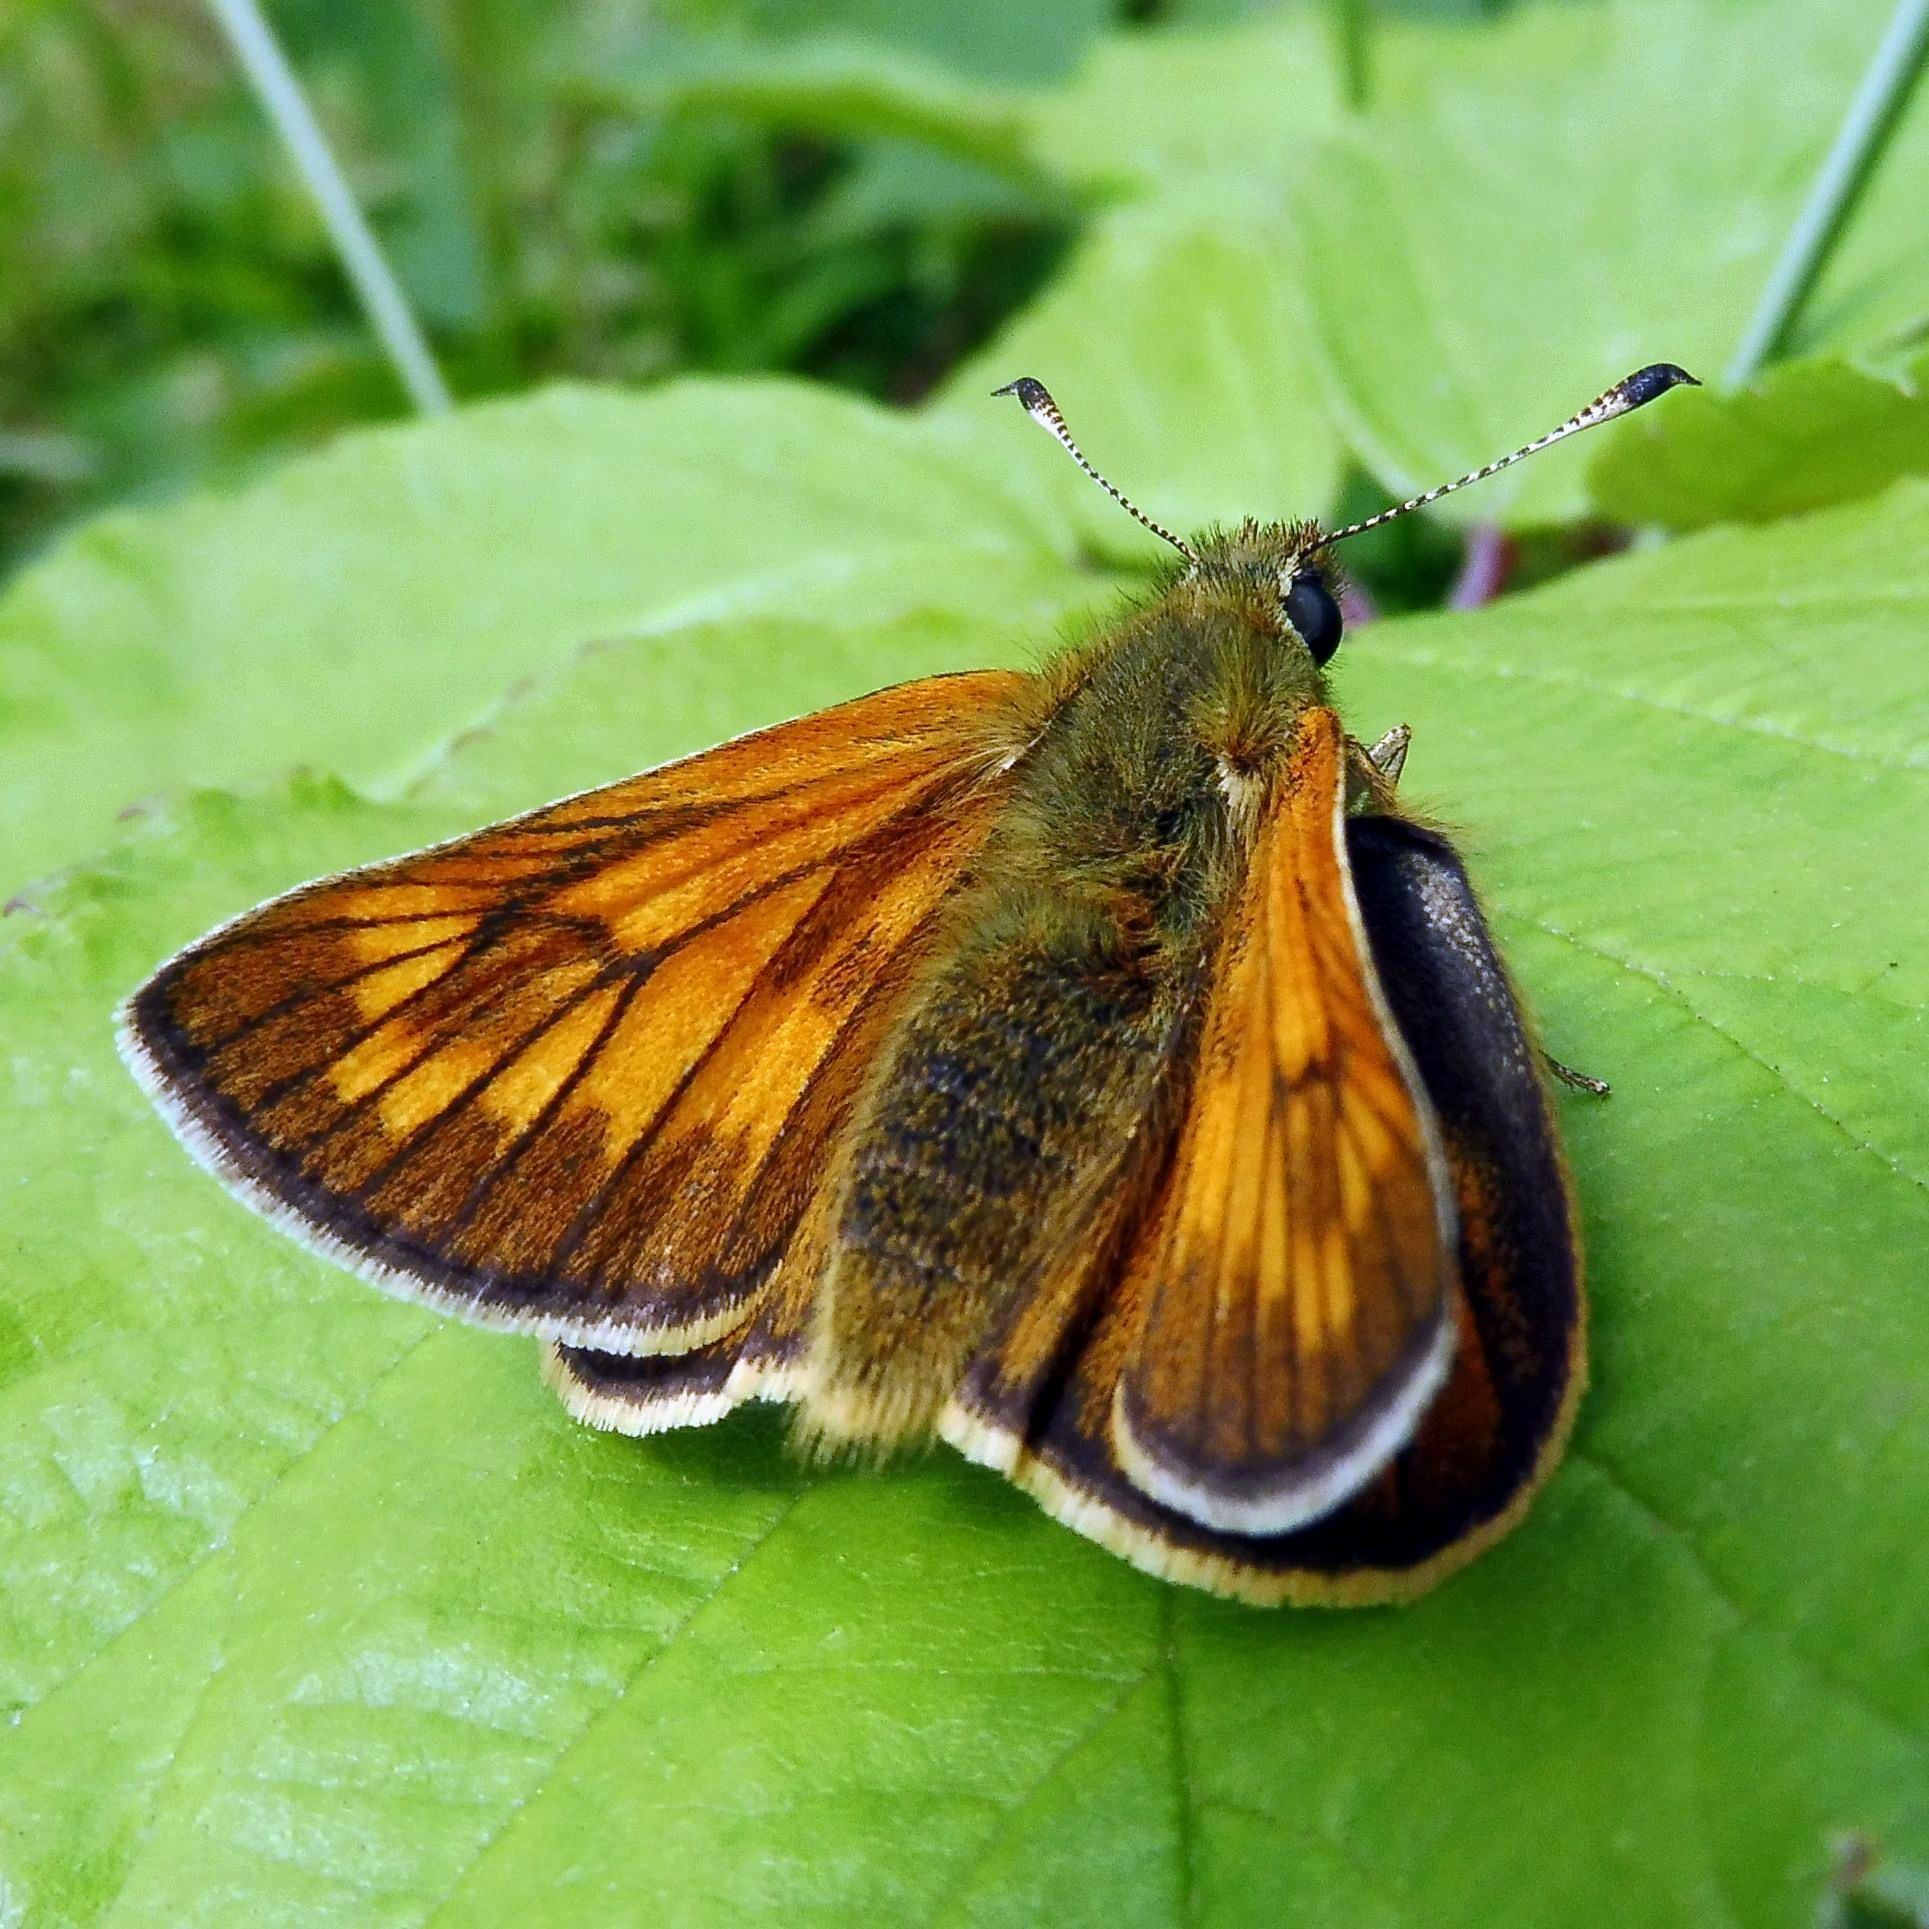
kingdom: Animalia
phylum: Arthropoda
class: Insecta
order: Lepidoptera
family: Hesperiidae
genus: Ochlodes
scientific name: Ochlodes venata
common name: Large skipper
